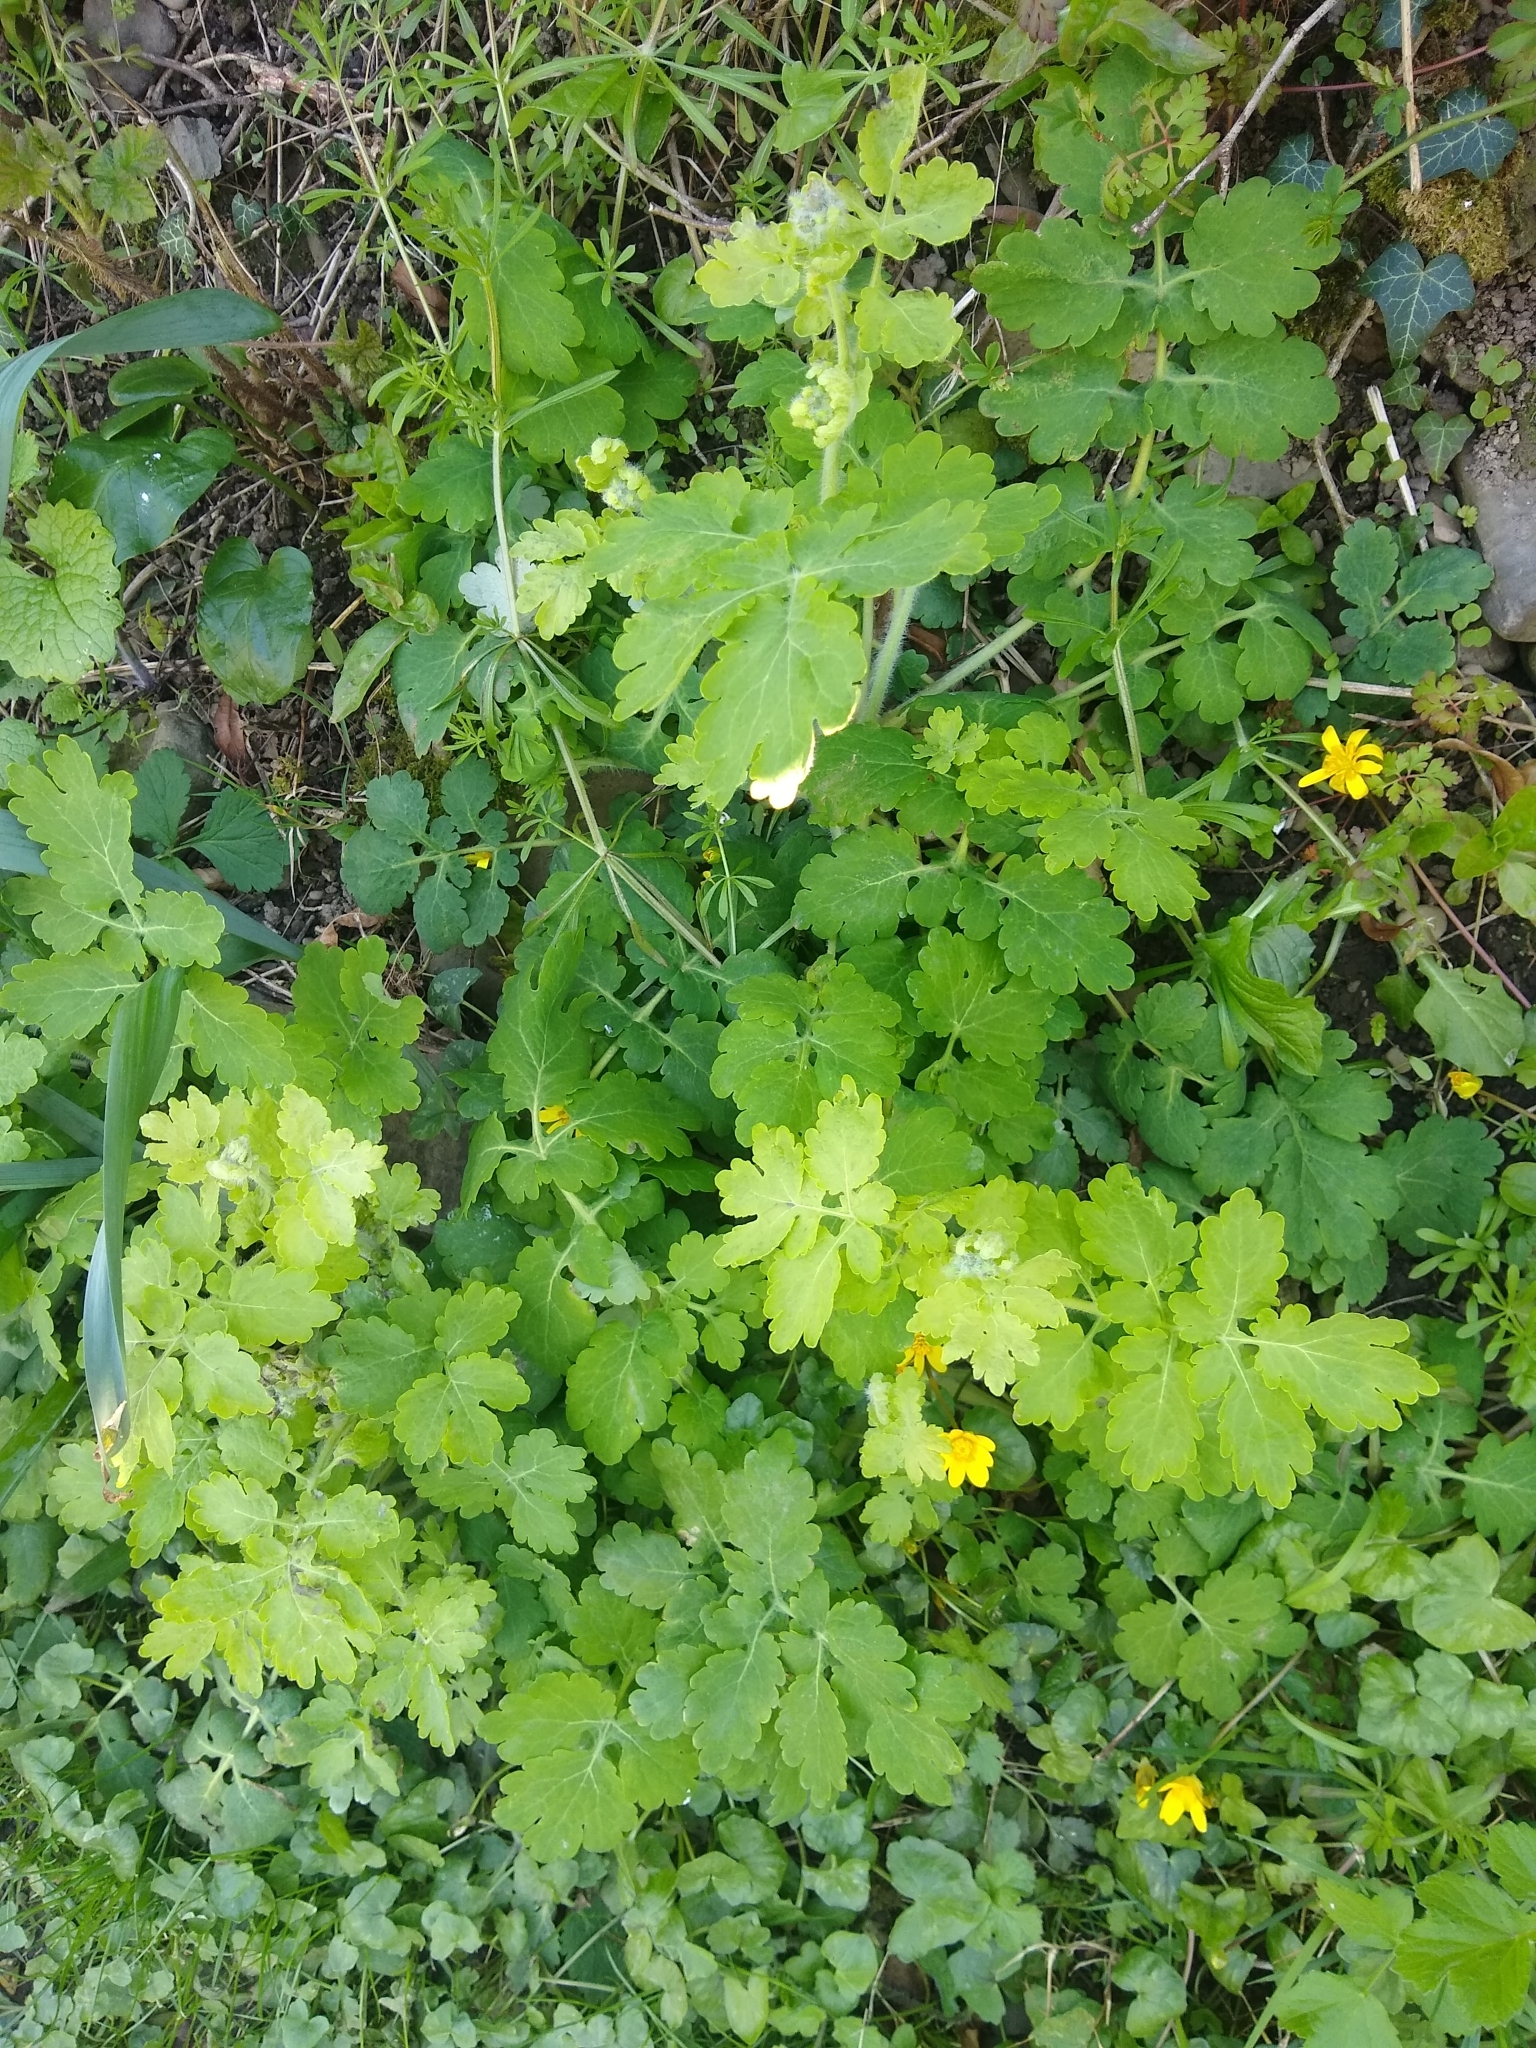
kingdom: Plantae
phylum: Tracheophyta
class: Magnoliopsida
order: Ranunculales
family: Papaveraceae
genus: Chelidonium
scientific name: Chelidonium majus
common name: Greater celandine
